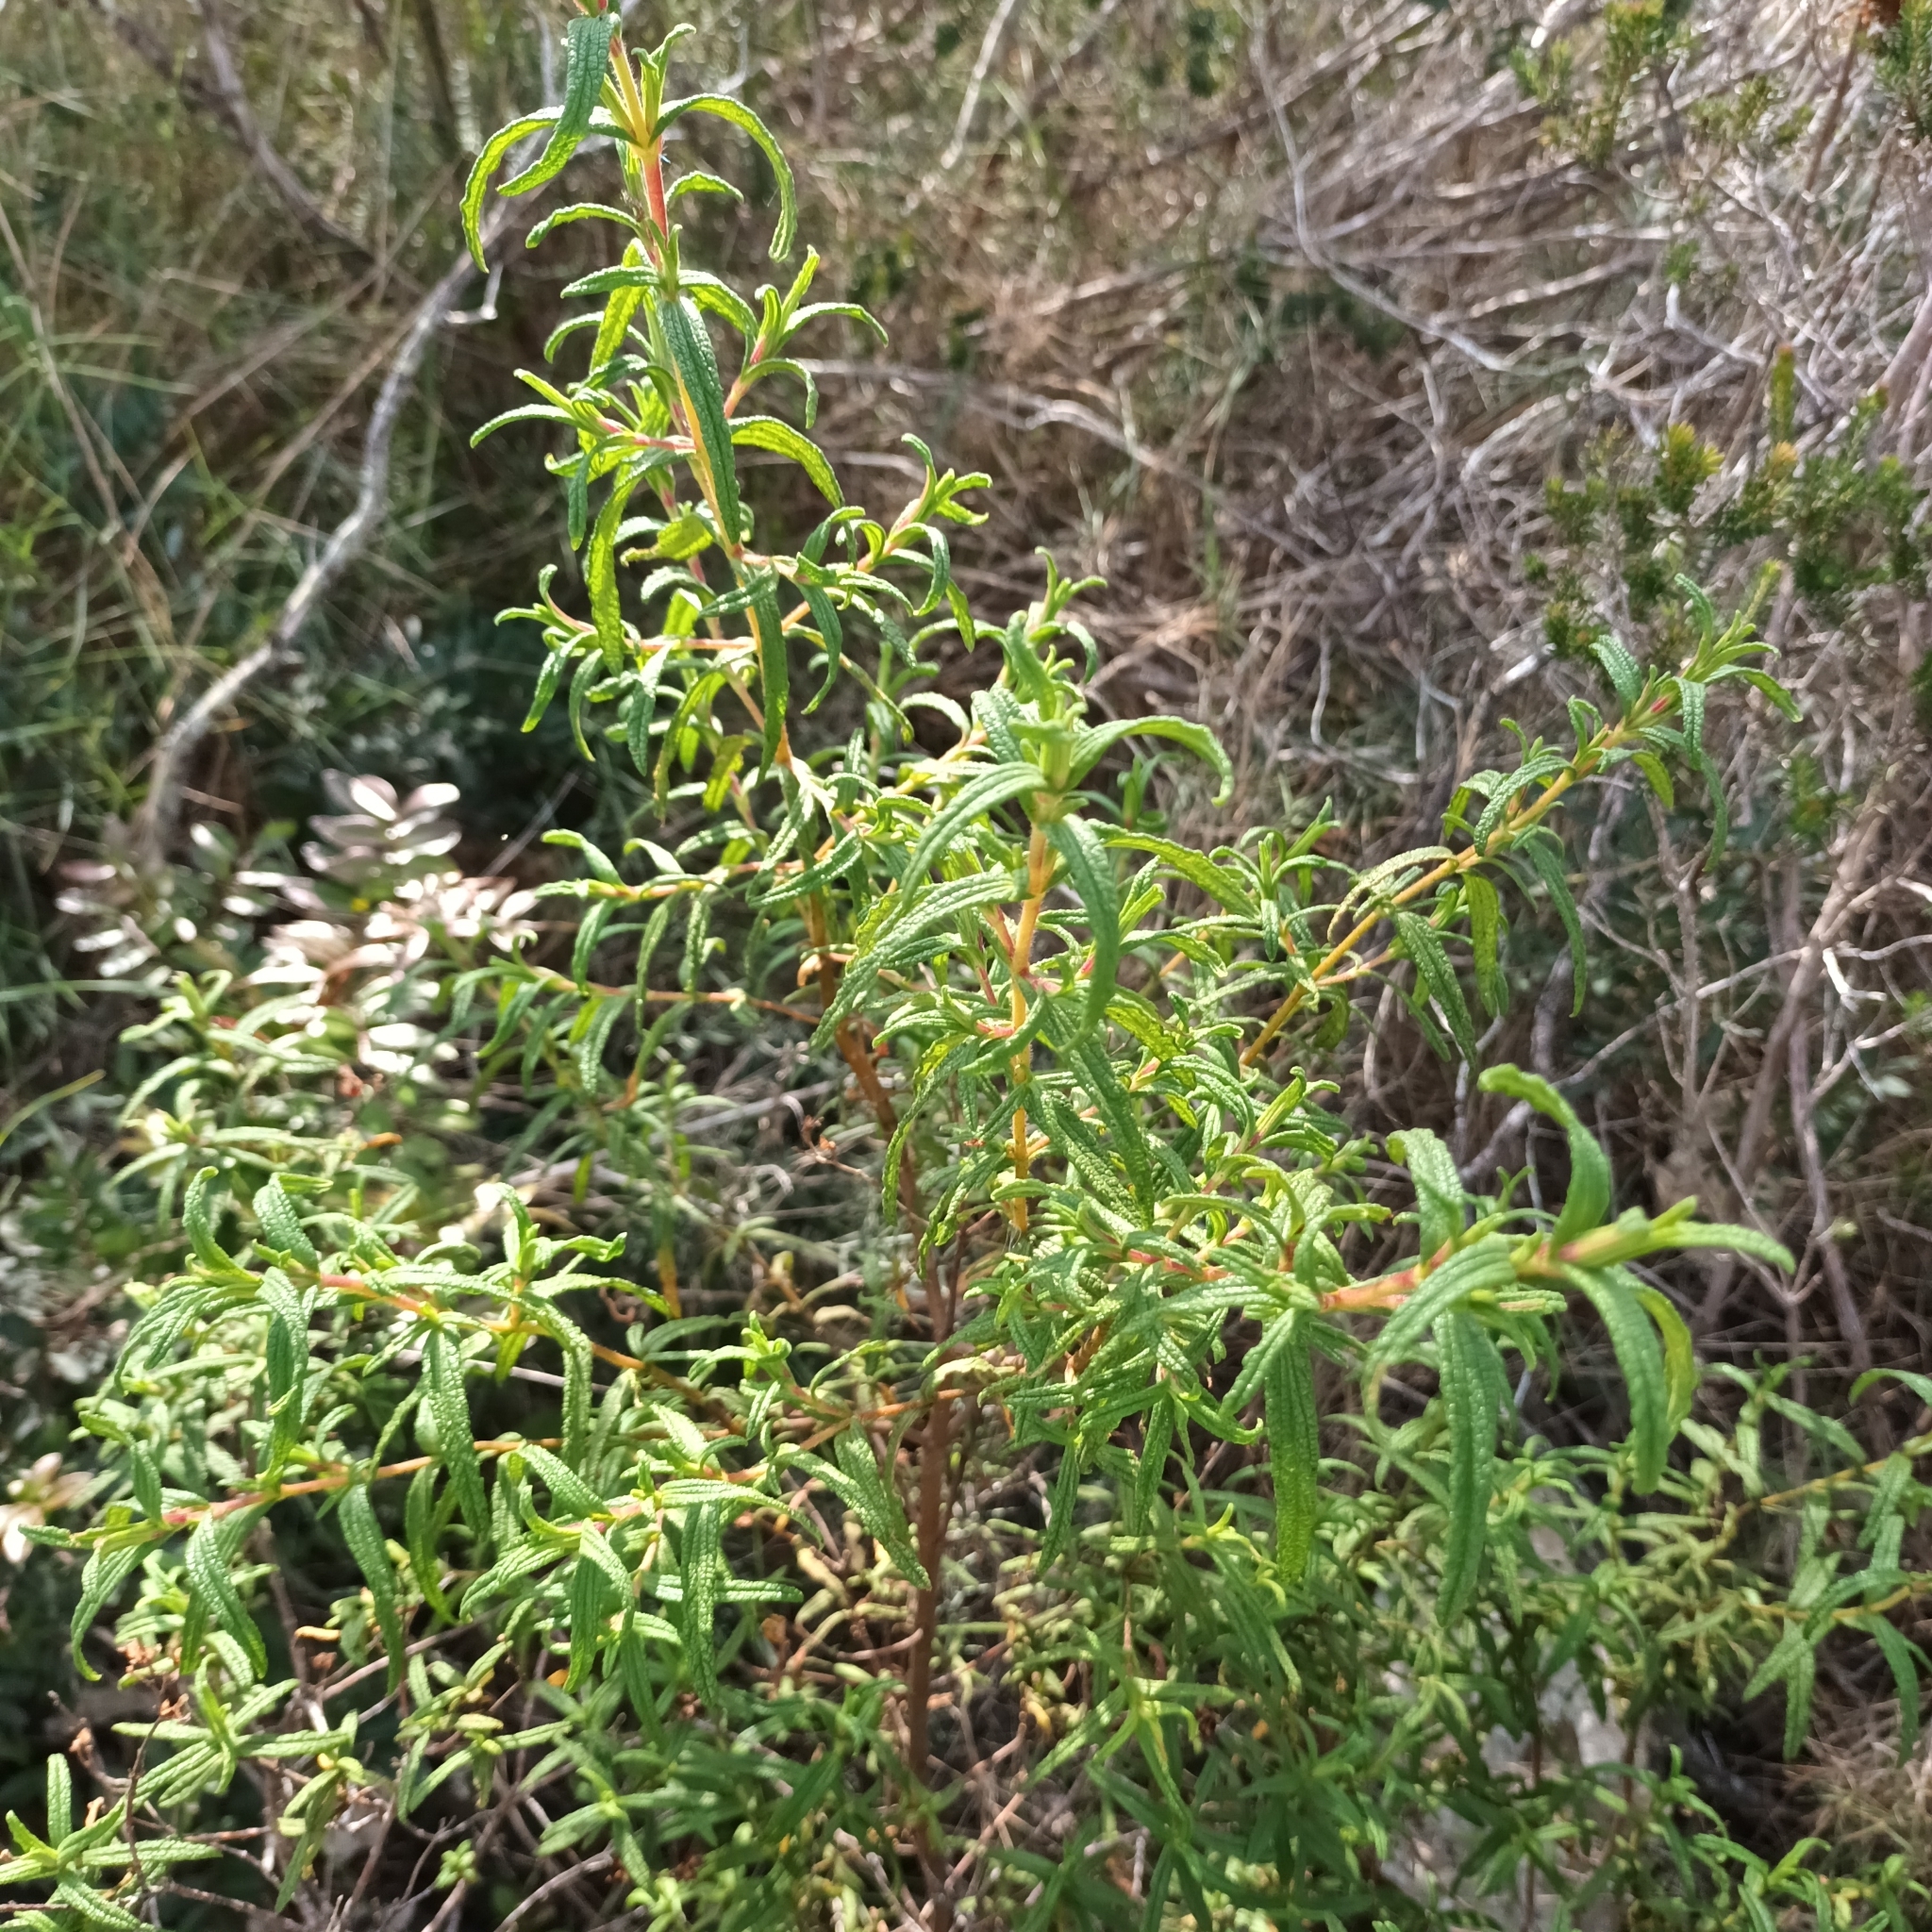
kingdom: Plantae
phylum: Tracheophyta
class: Magnoliopsida
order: Malvales
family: Cistaceae
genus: Cistus
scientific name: Cistus monspeliensis
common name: Montpelier cistus
